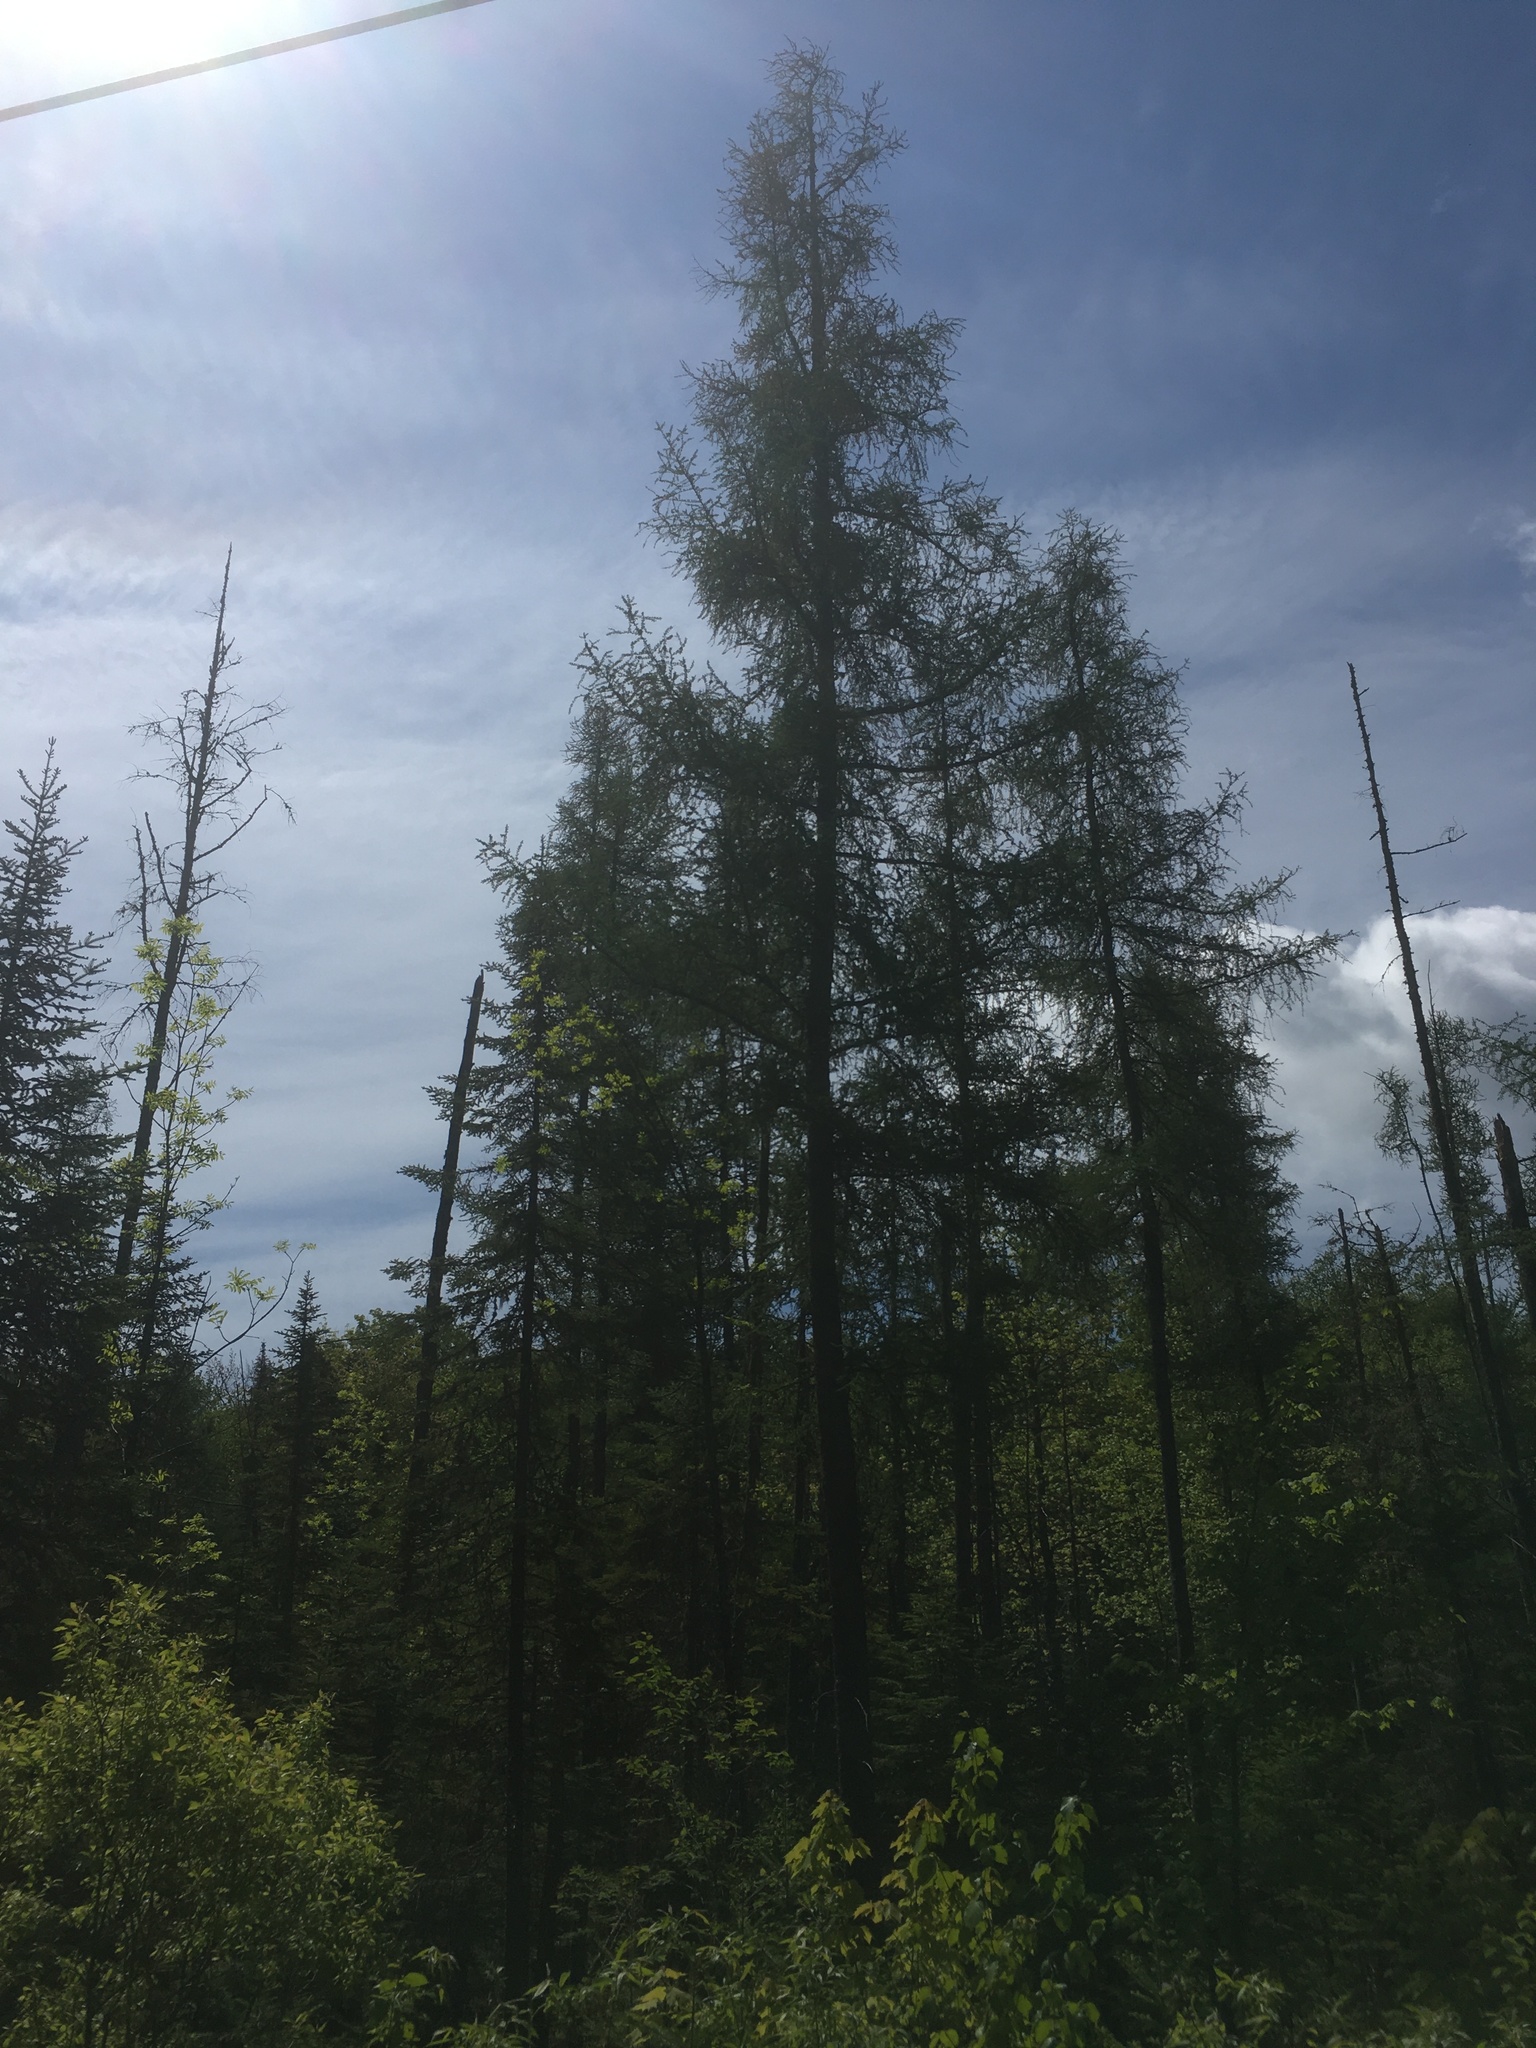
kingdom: Plantae
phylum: Tracheophyta
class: Pinopsida
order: Pinales
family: Pinaceae
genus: Larix
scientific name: Larix laricina
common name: American larch
